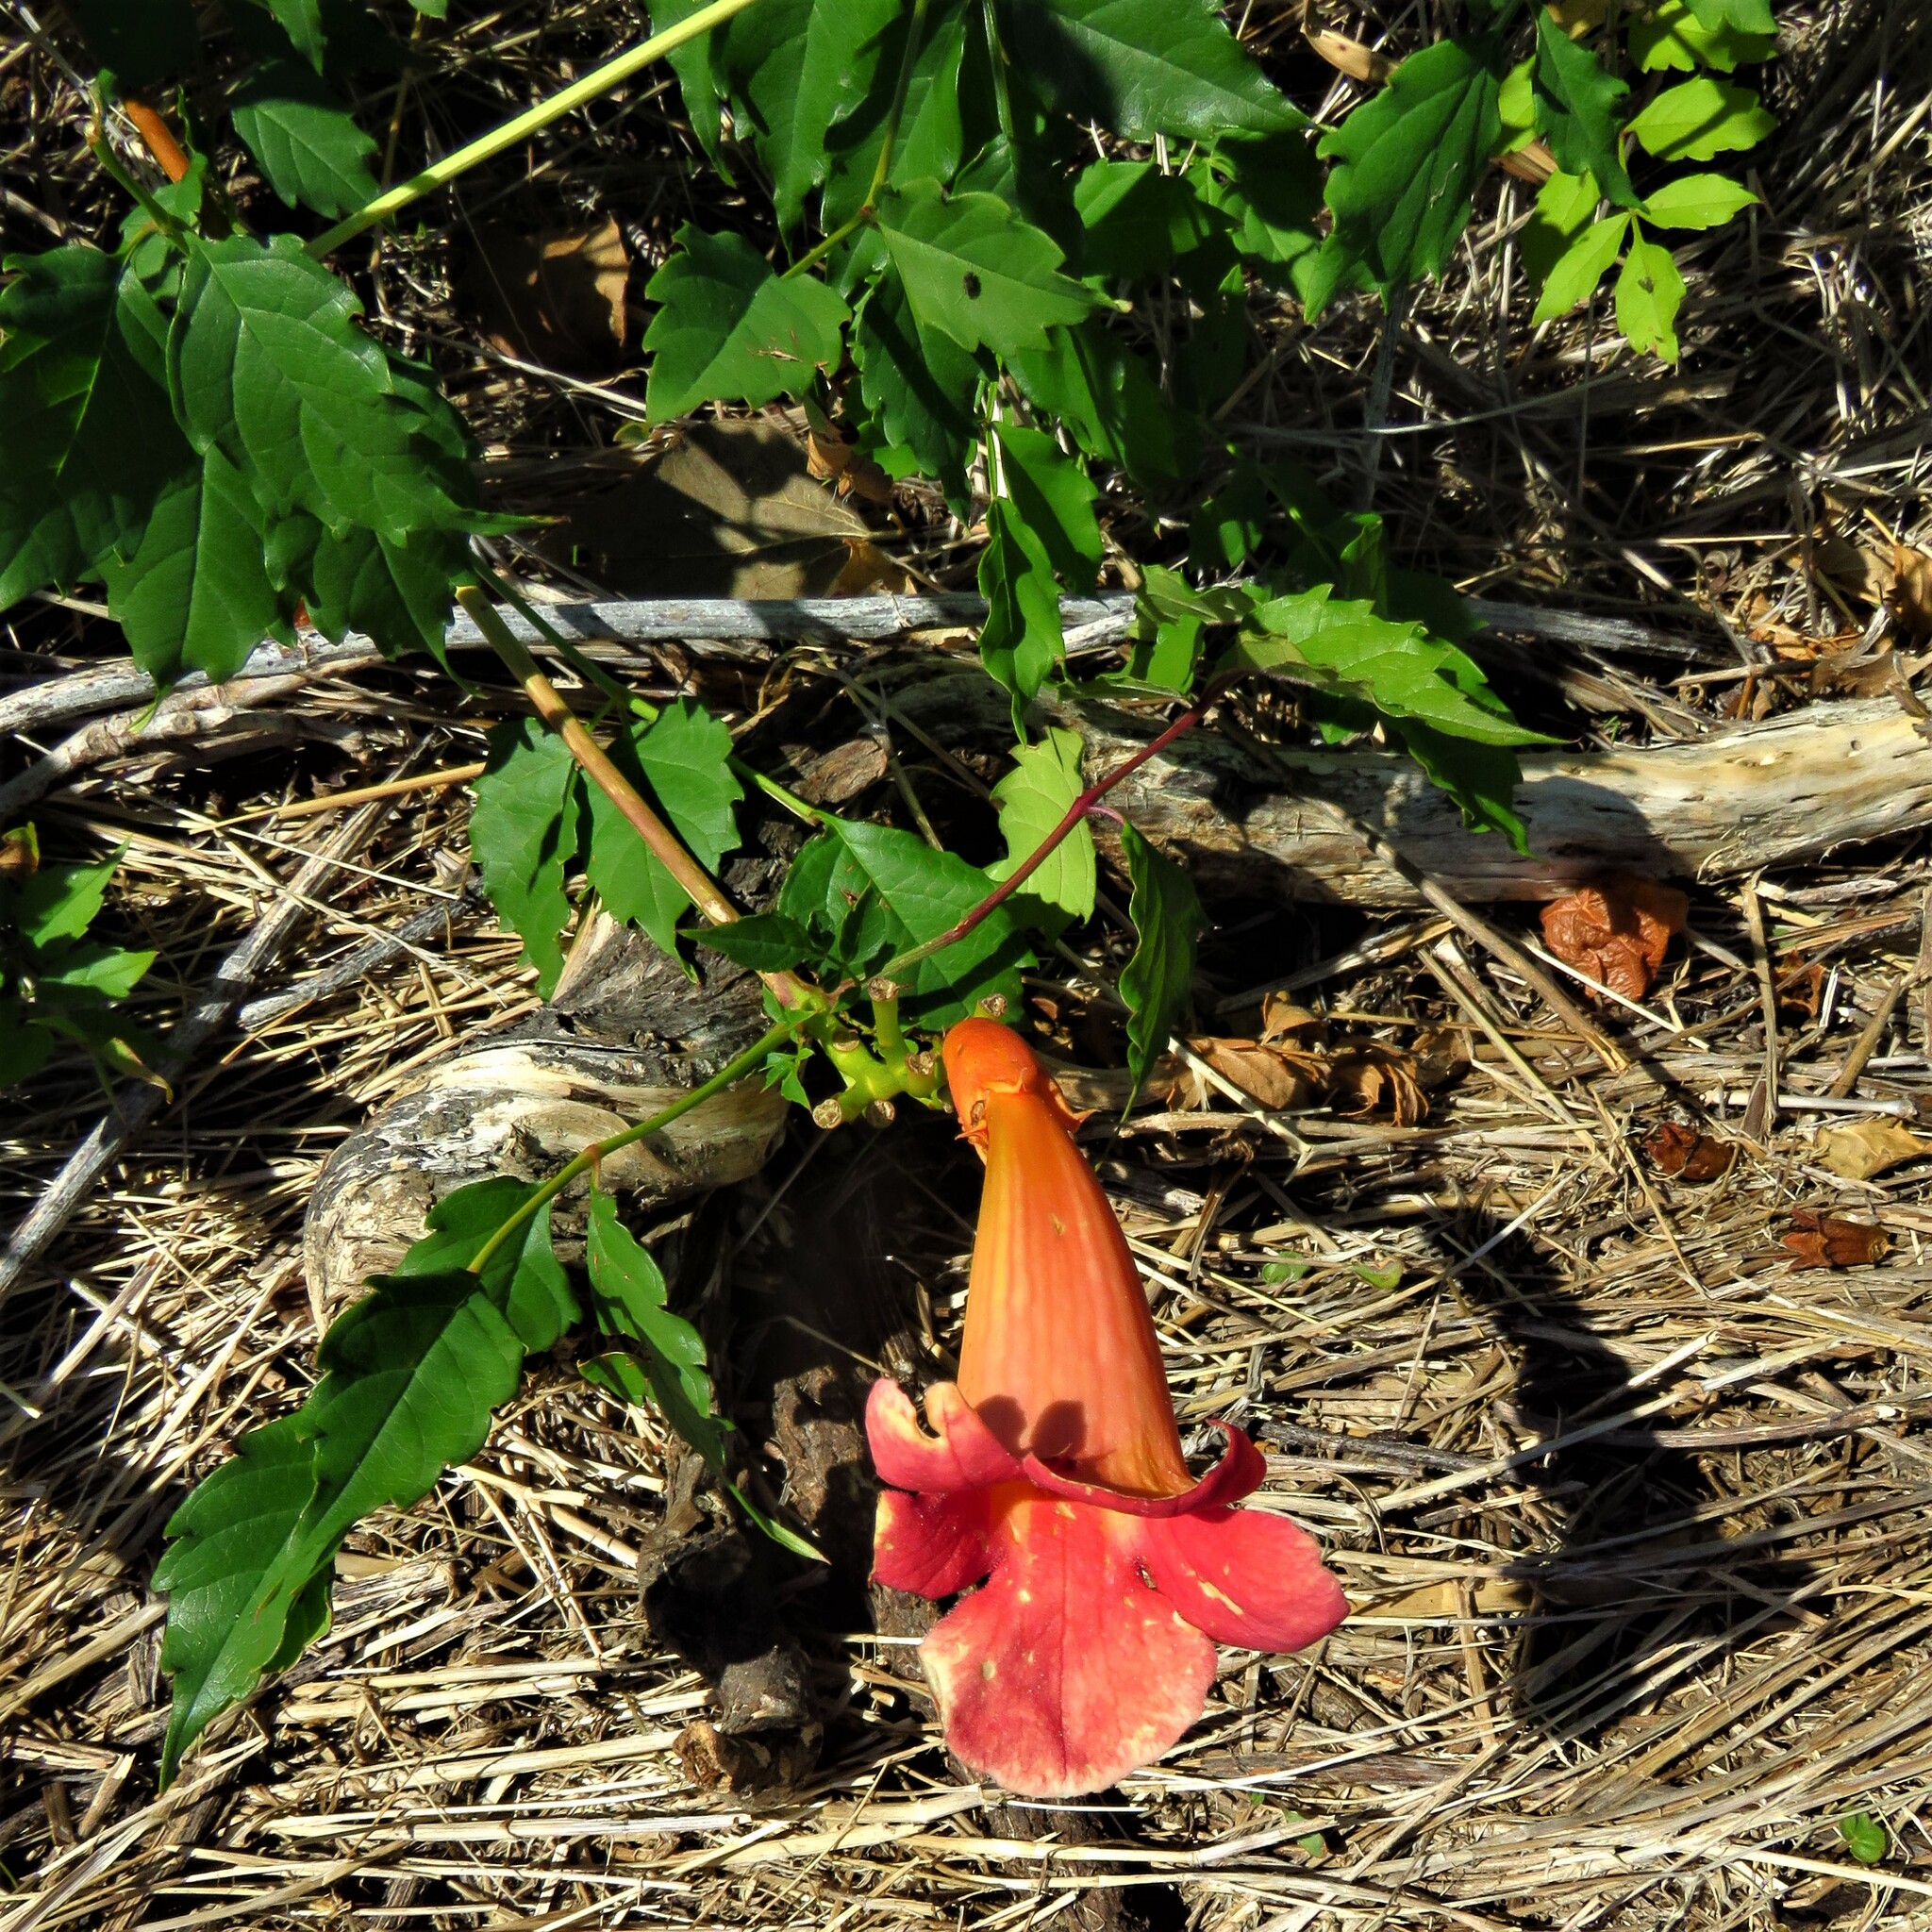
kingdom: Plantae
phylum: Tracheophyta
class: Magnoliopsida
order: Lamiales
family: Bignoniaceae
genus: Campsis
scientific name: Campsis radicans
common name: Trumpet-creeper
